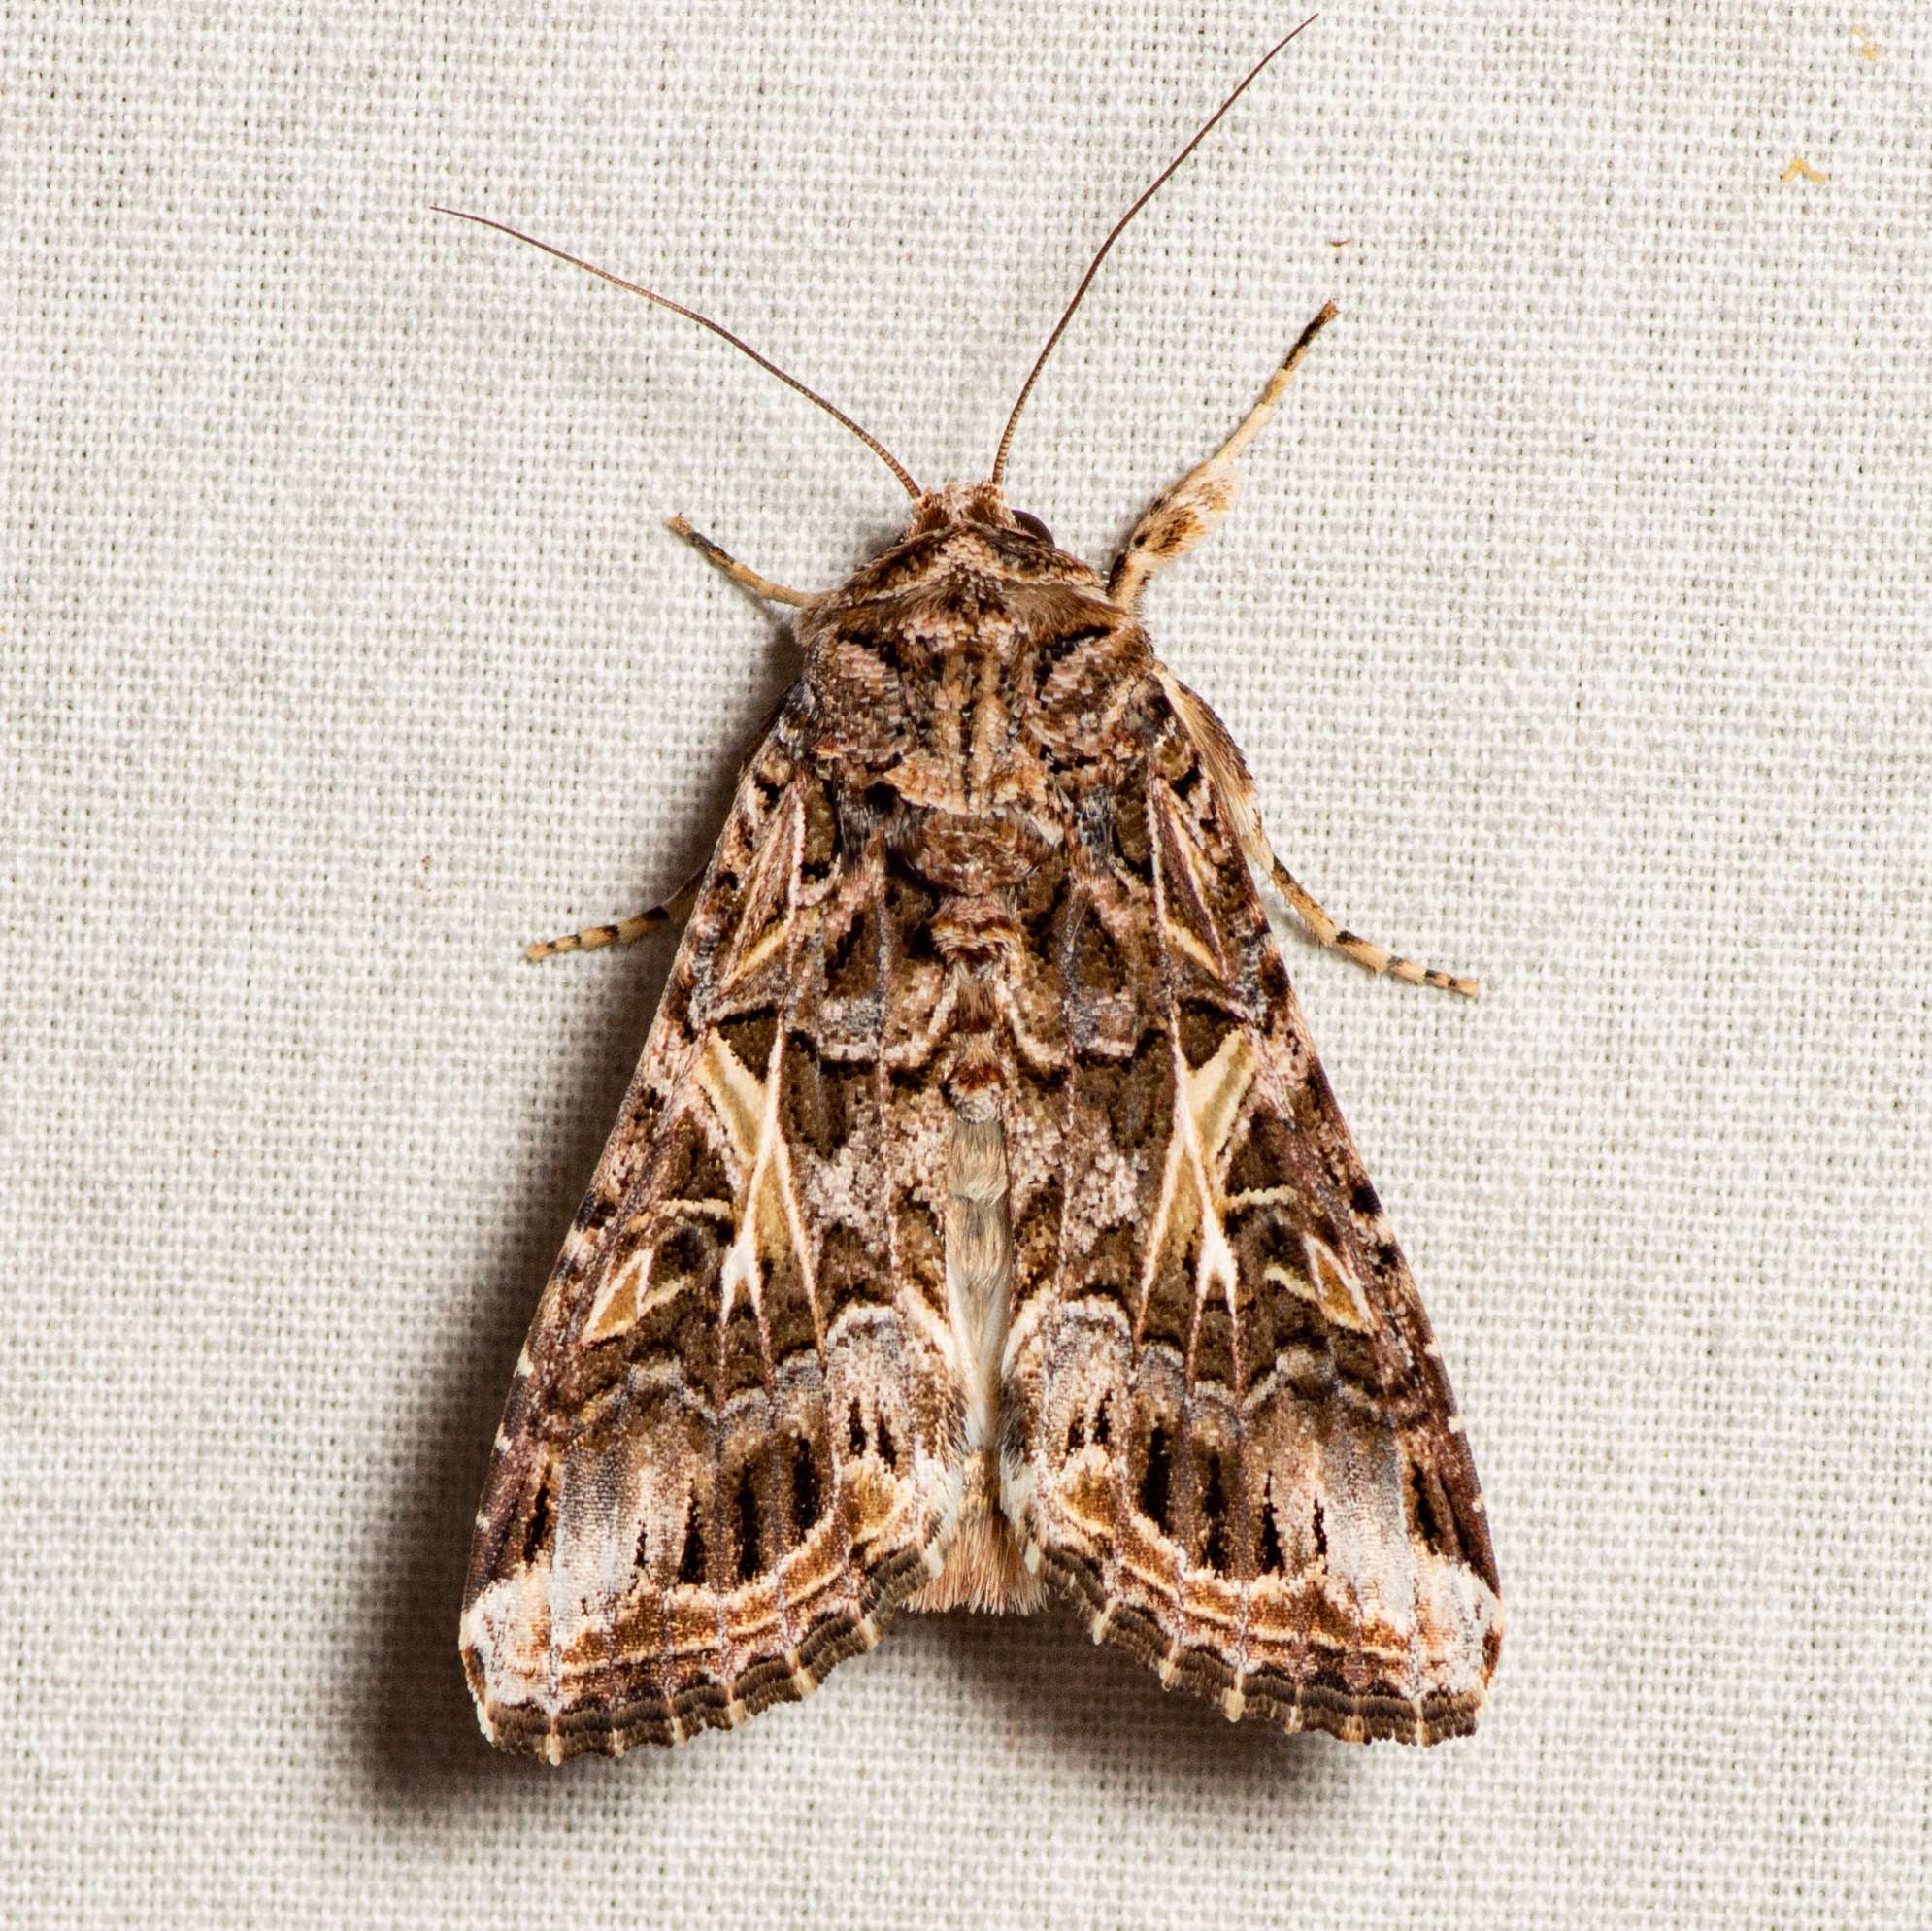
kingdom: Animalia
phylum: Arthropoda
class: Insecta
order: Lepidoptera
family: Noctuidae
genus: Spodoptera
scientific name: Spodoptera ornithogalli
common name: Yellow-striped armyworm
